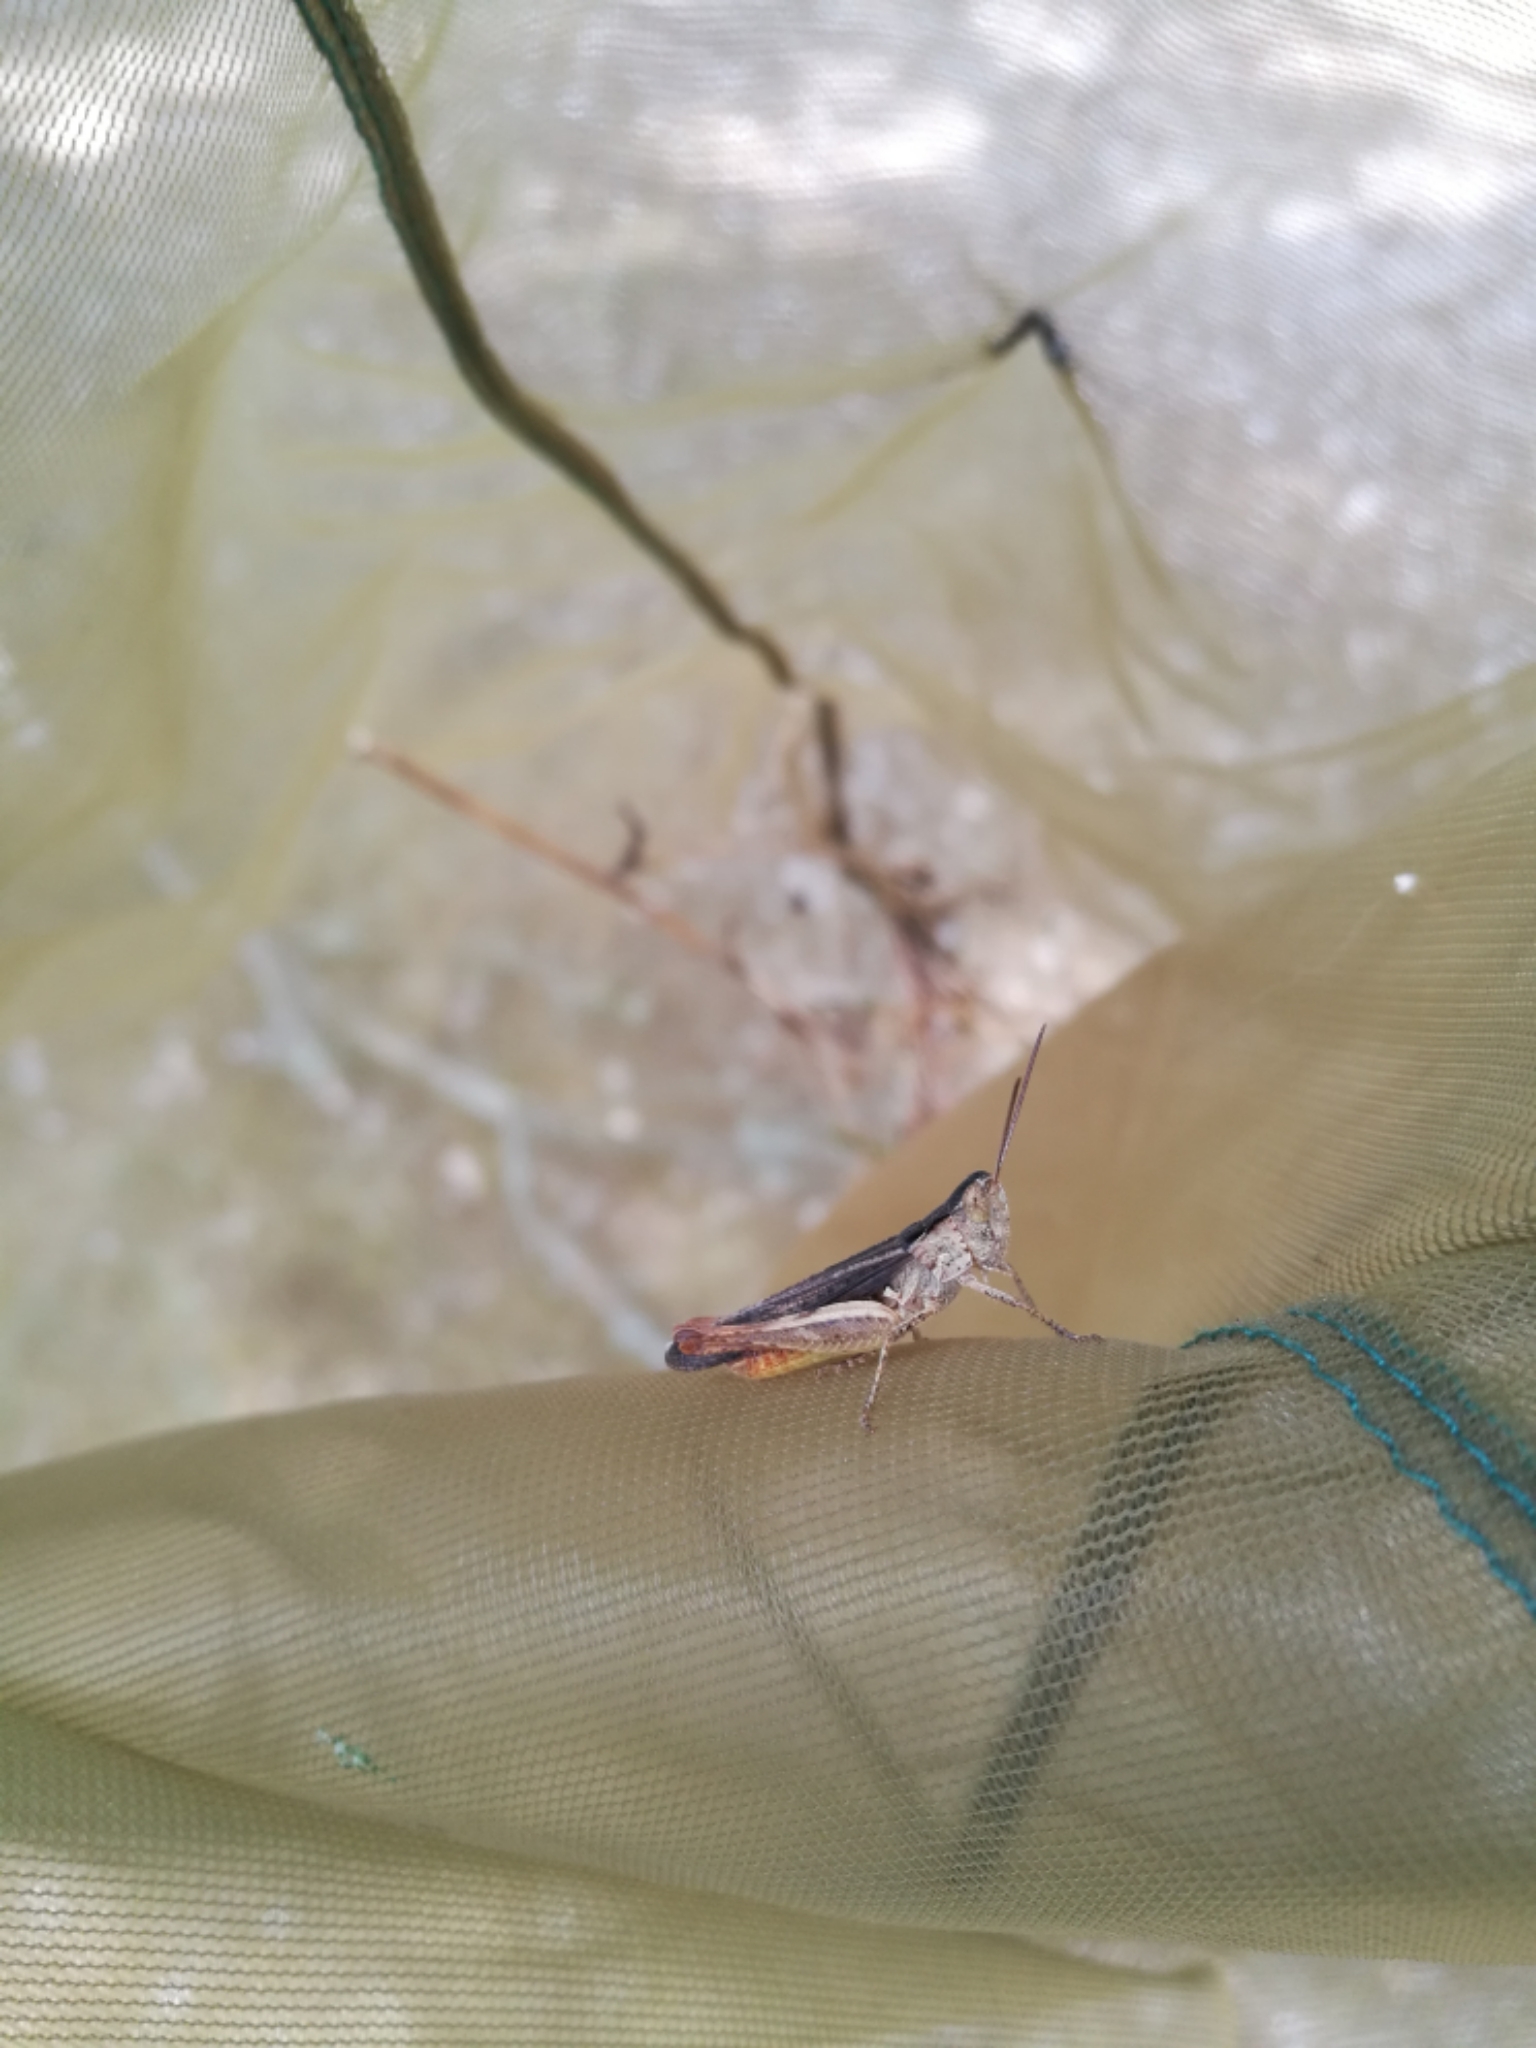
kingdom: Animalia
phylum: Arthropoda
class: Insecta
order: Orthoptera
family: Acrididae
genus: Chorthippus
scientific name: Chorthippus brunneus
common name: Field grasshopper
